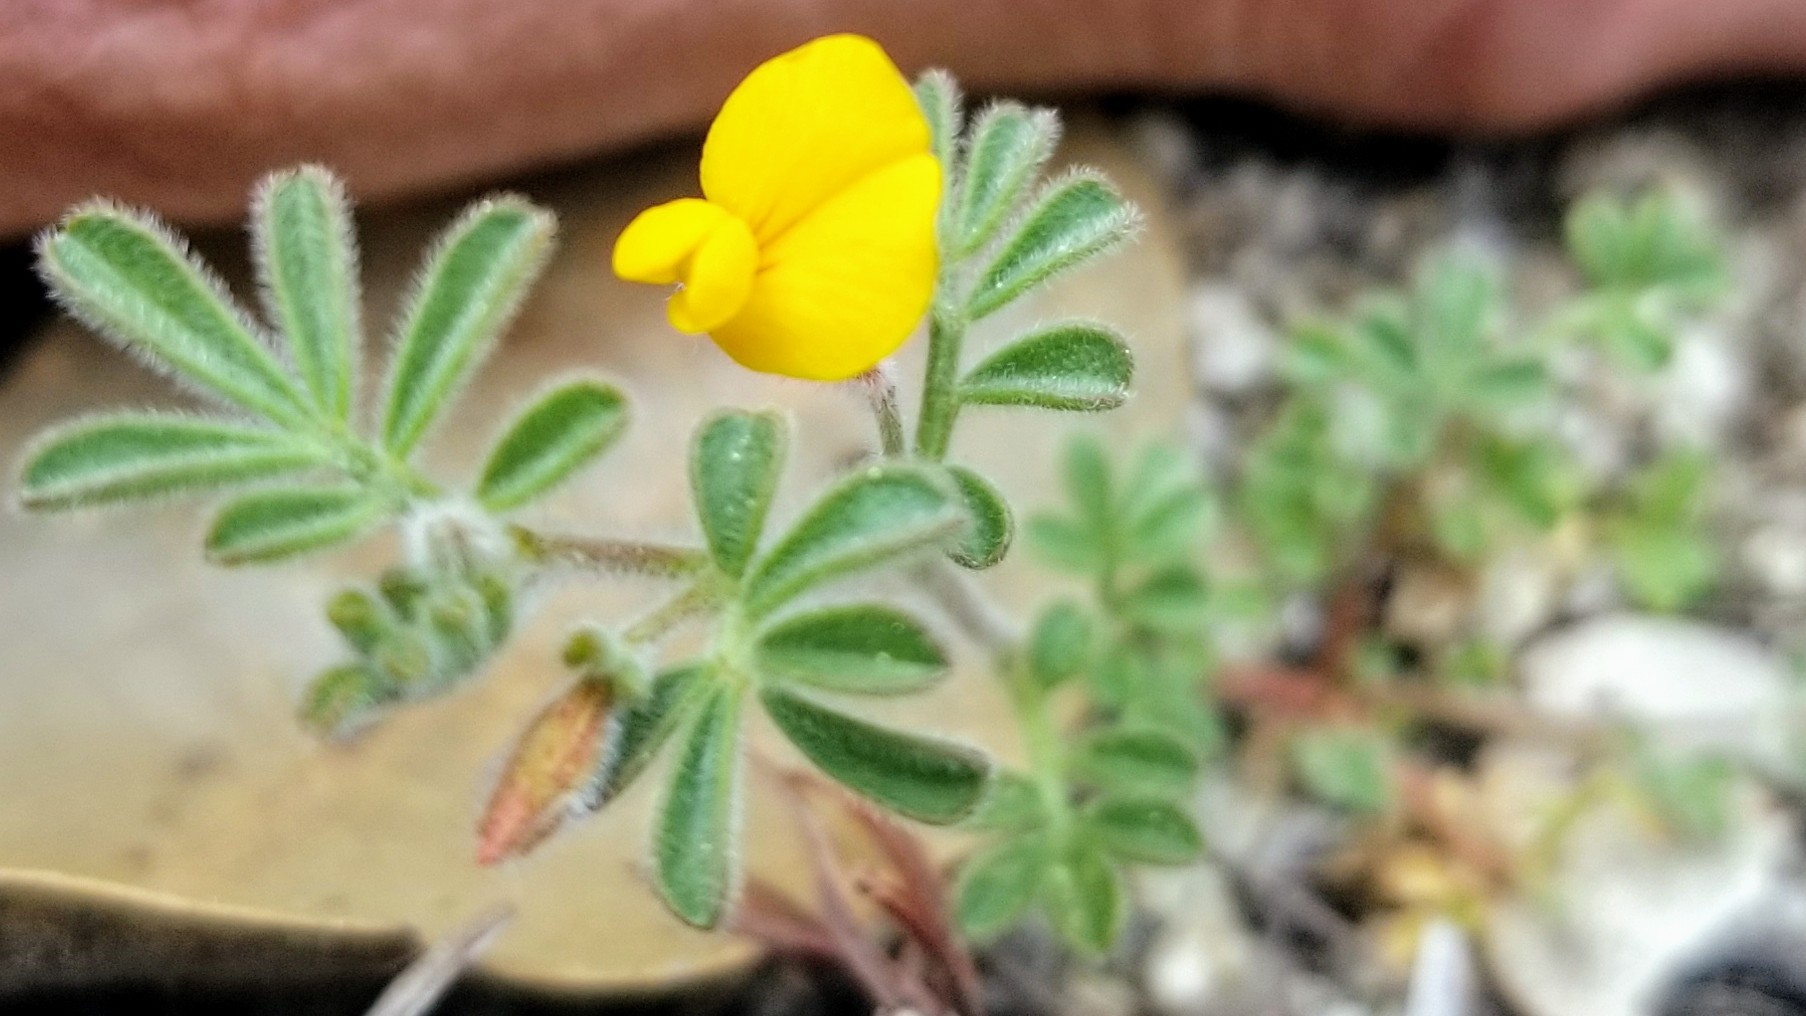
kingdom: Plantae
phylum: Tracheophyta
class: Magnoliopsida
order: Fabales
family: Fabaceae
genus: Acmispon
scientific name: Acmispon strigosus
